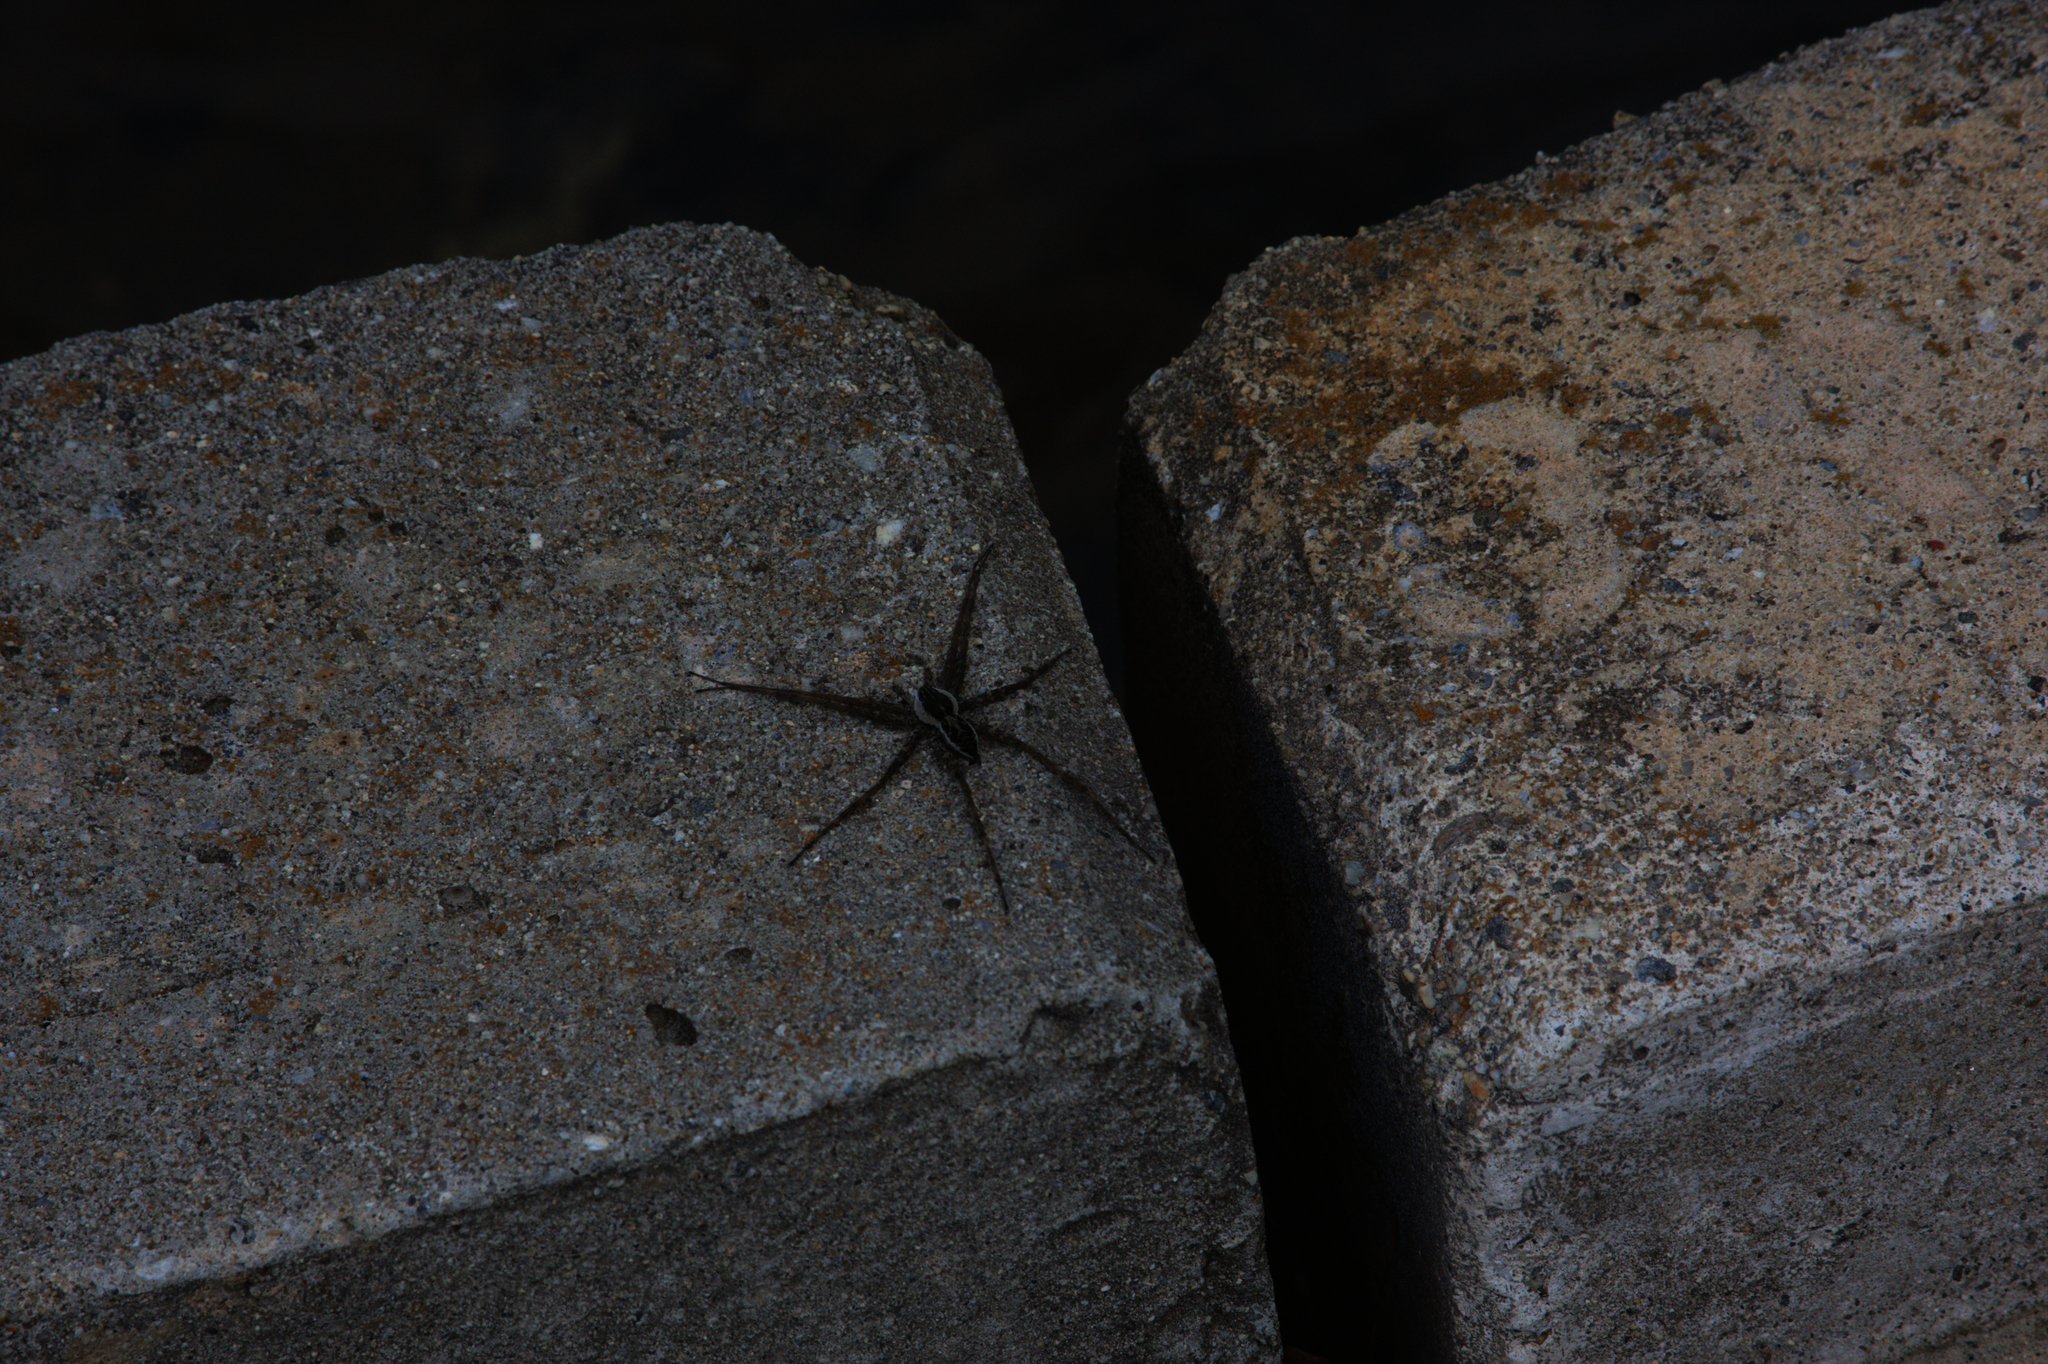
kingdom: Animalia
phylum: Arthropoda
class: Arachnida
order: Araneae
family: Pisauridae
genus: Dolomedes
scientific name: Dolomedes scriptus
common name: Striped fishing spider
